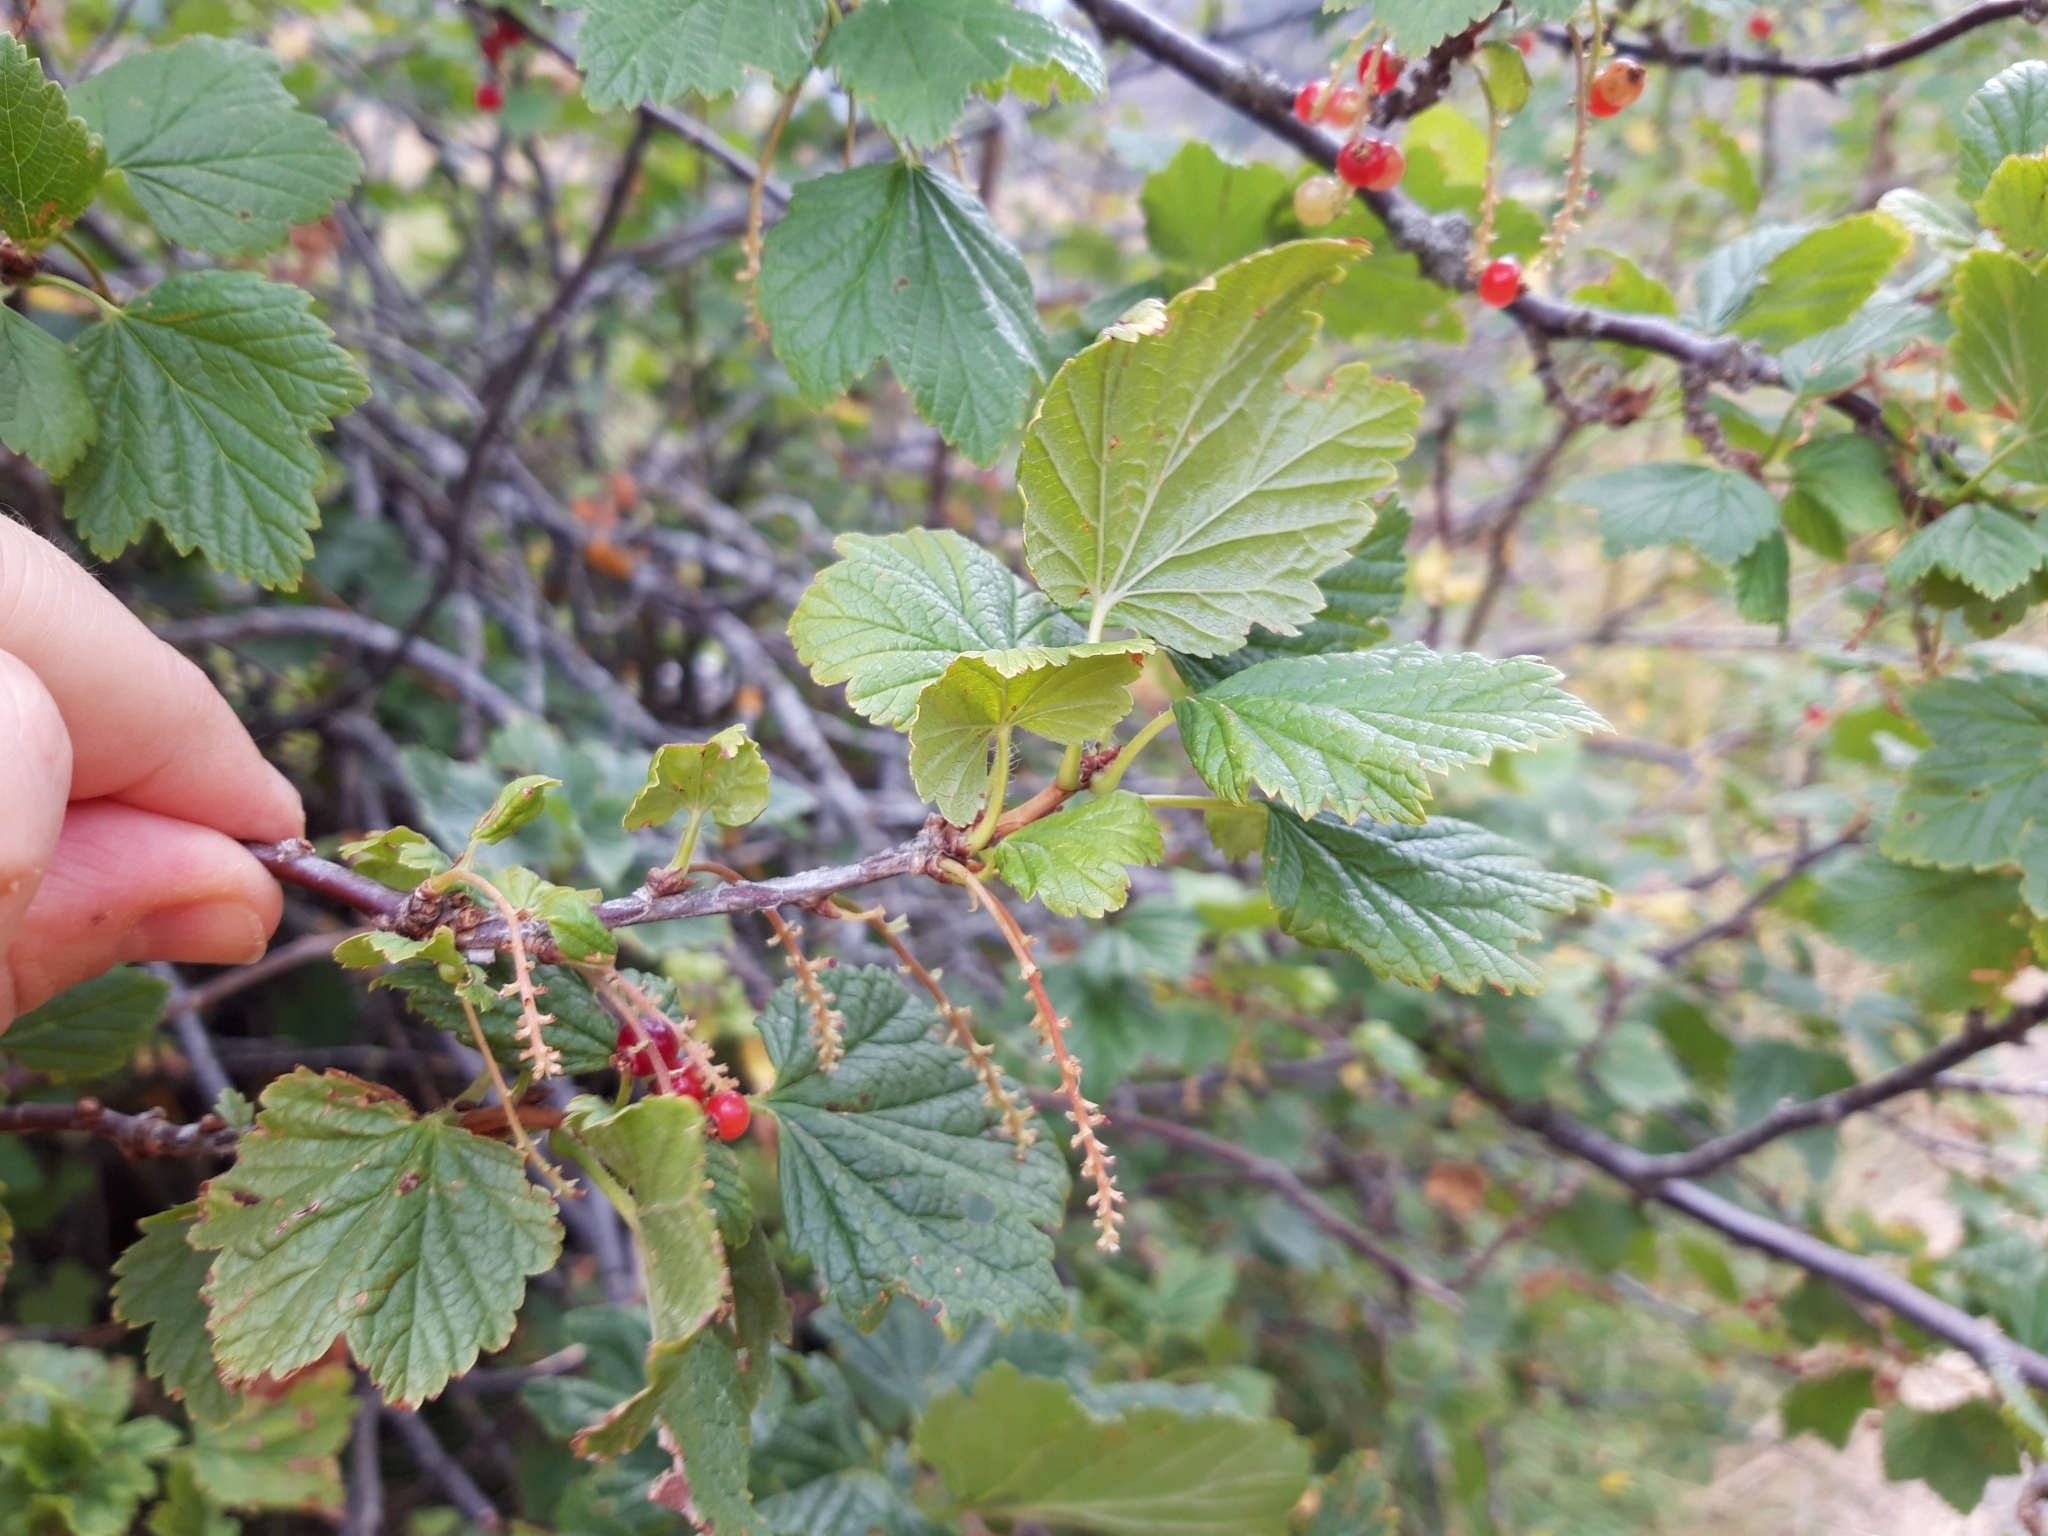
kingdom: Plantae
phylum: Tracheophyta
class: Magnoliopsida
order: Saxifragales
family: Grossulariaceae
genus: Ribes
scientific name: Ribes petraeum
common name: Rock currant
